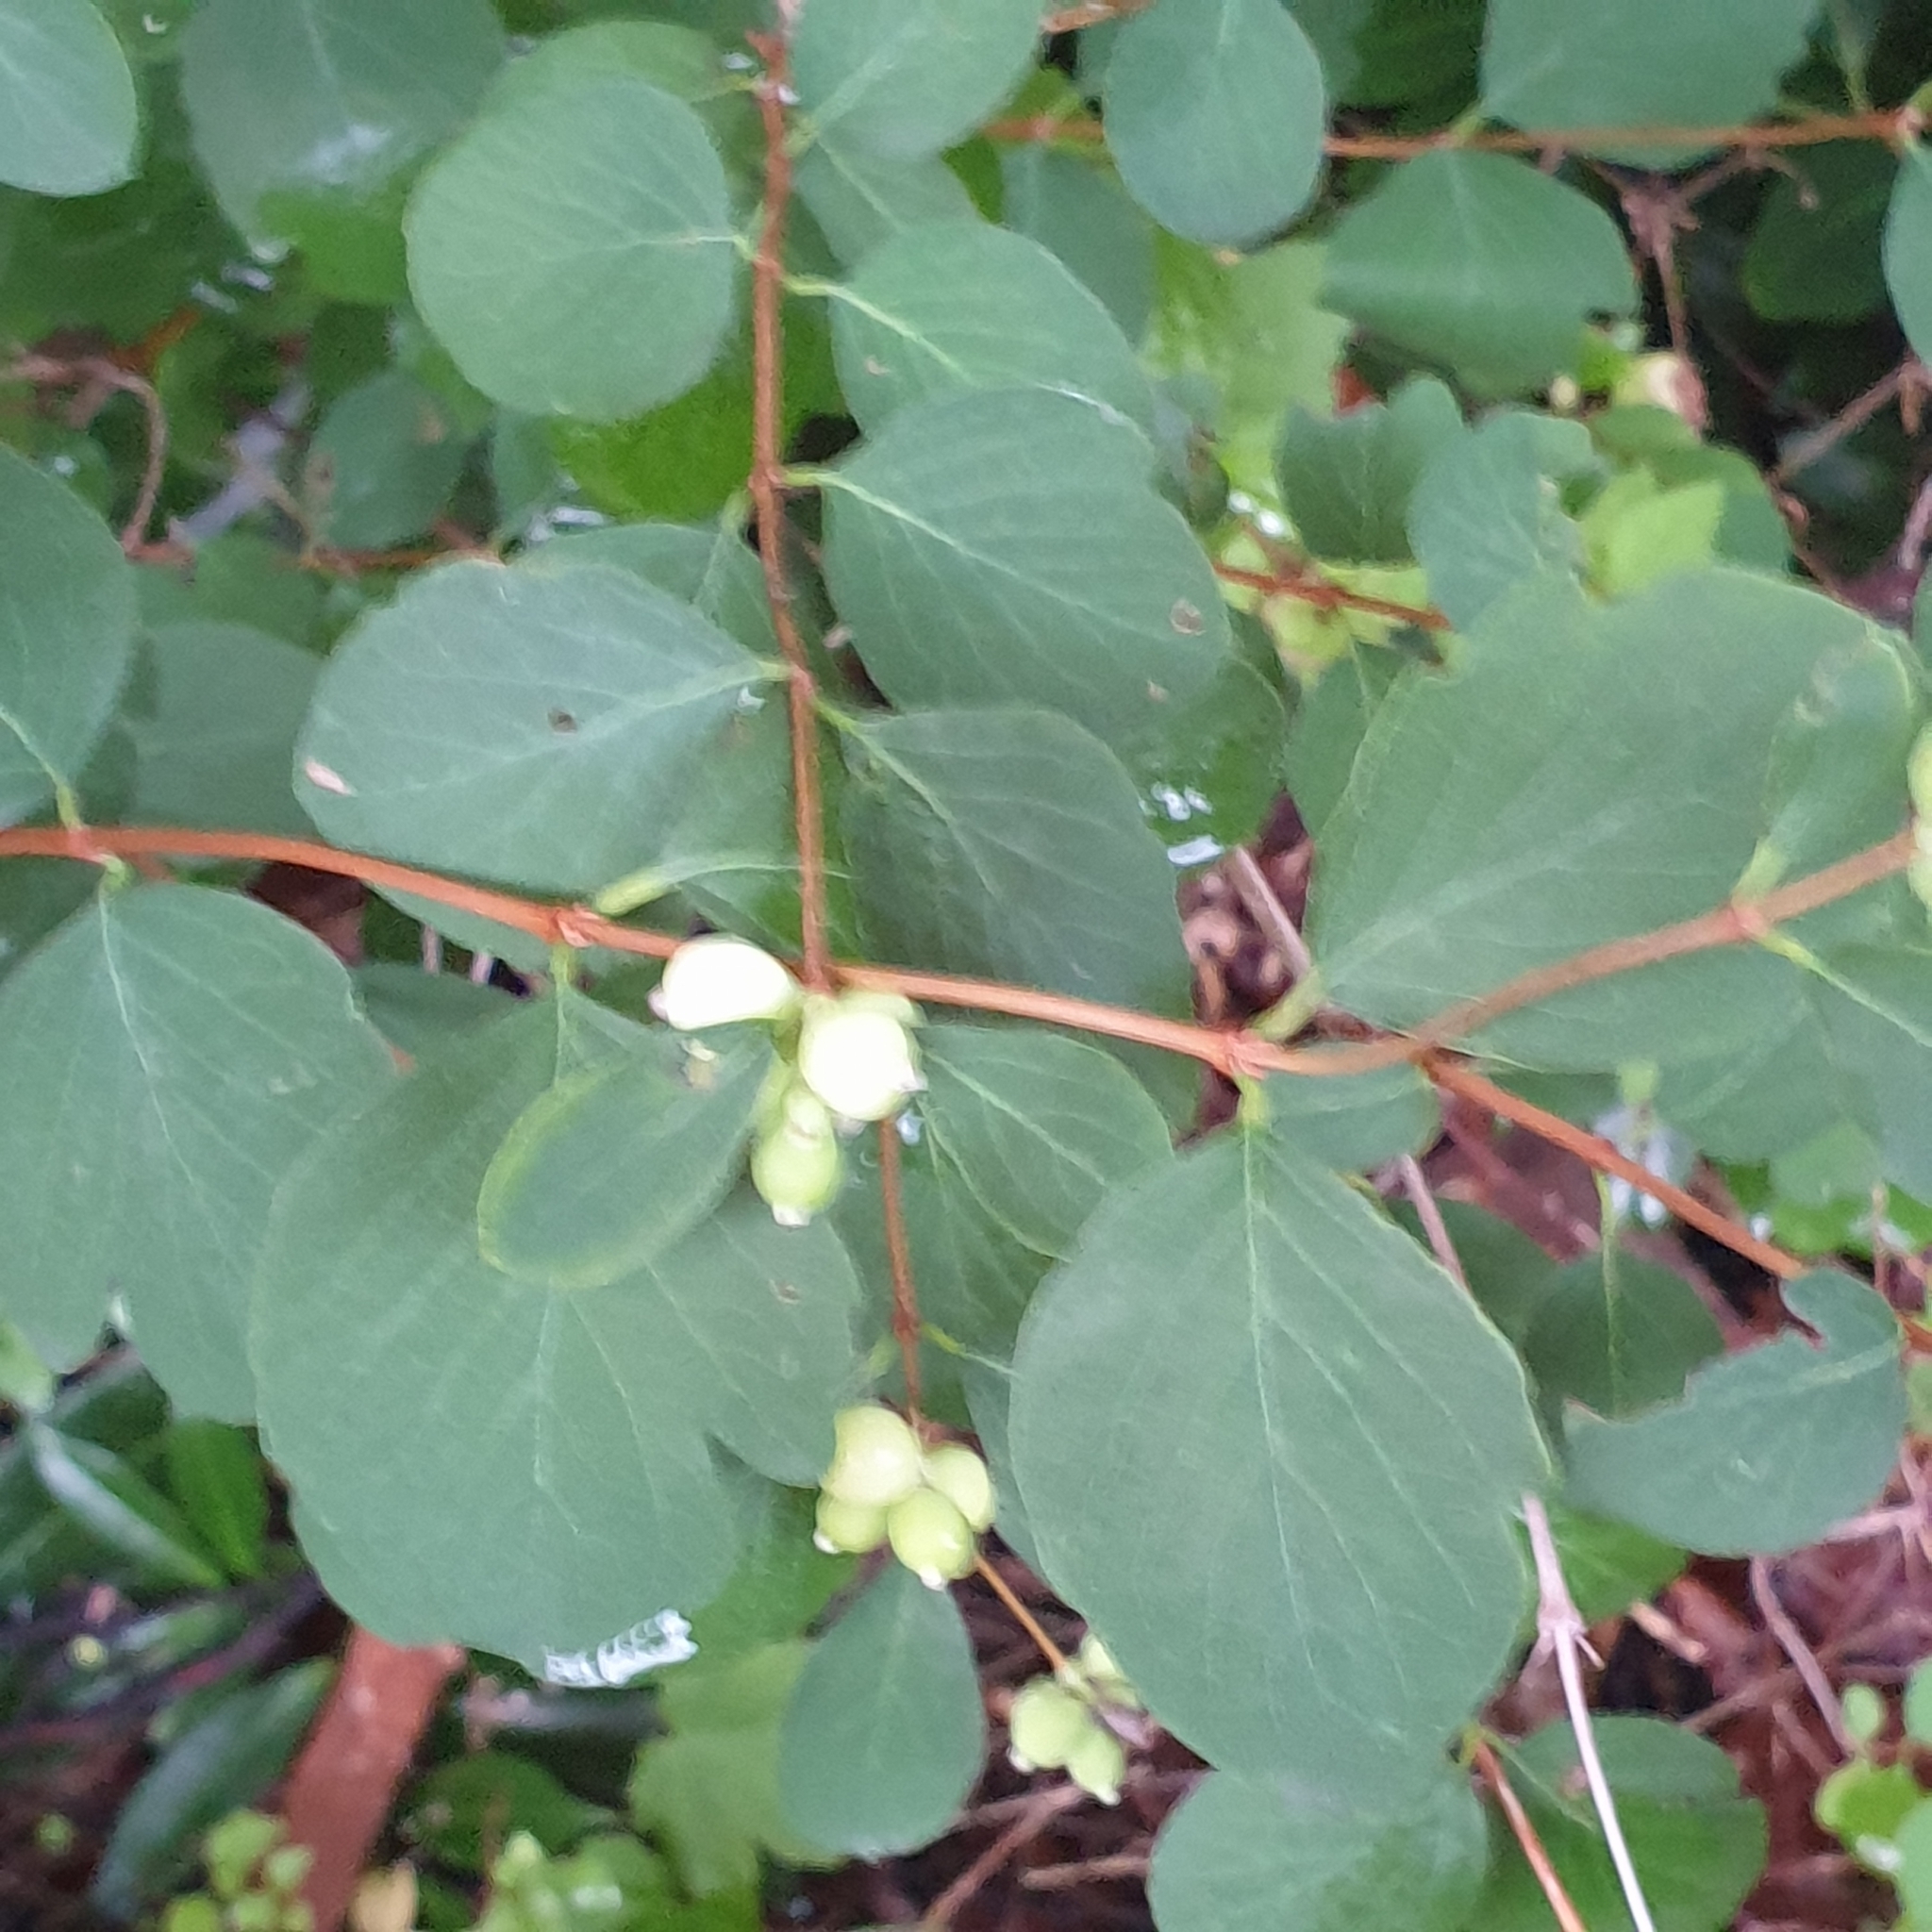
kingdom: Plantae
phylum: Tracheophyta
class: Magnoliopsida
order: Dipsacales
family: Caprifoliaceae
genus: Symphoricarpos
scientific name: Symphoricarpos albus
